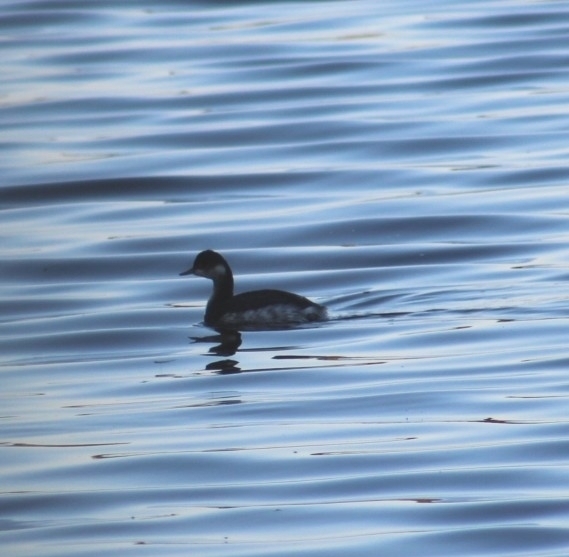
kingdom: Animalia
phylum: Chordata
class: Aves
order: Podicipediformes
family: Podicipedidae
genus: Podiceps
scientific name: Podiceps nigricollis
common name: Black-necked grebe
